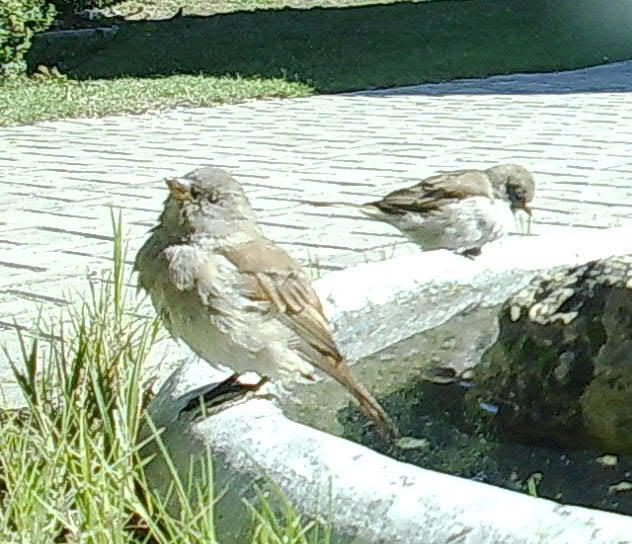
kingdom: Animalia
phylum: Chordata
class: Aves
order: Passeriformes
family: Passeridae
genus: Passer
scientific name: Passer diffusus
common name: Southern grey-headed sparrow
